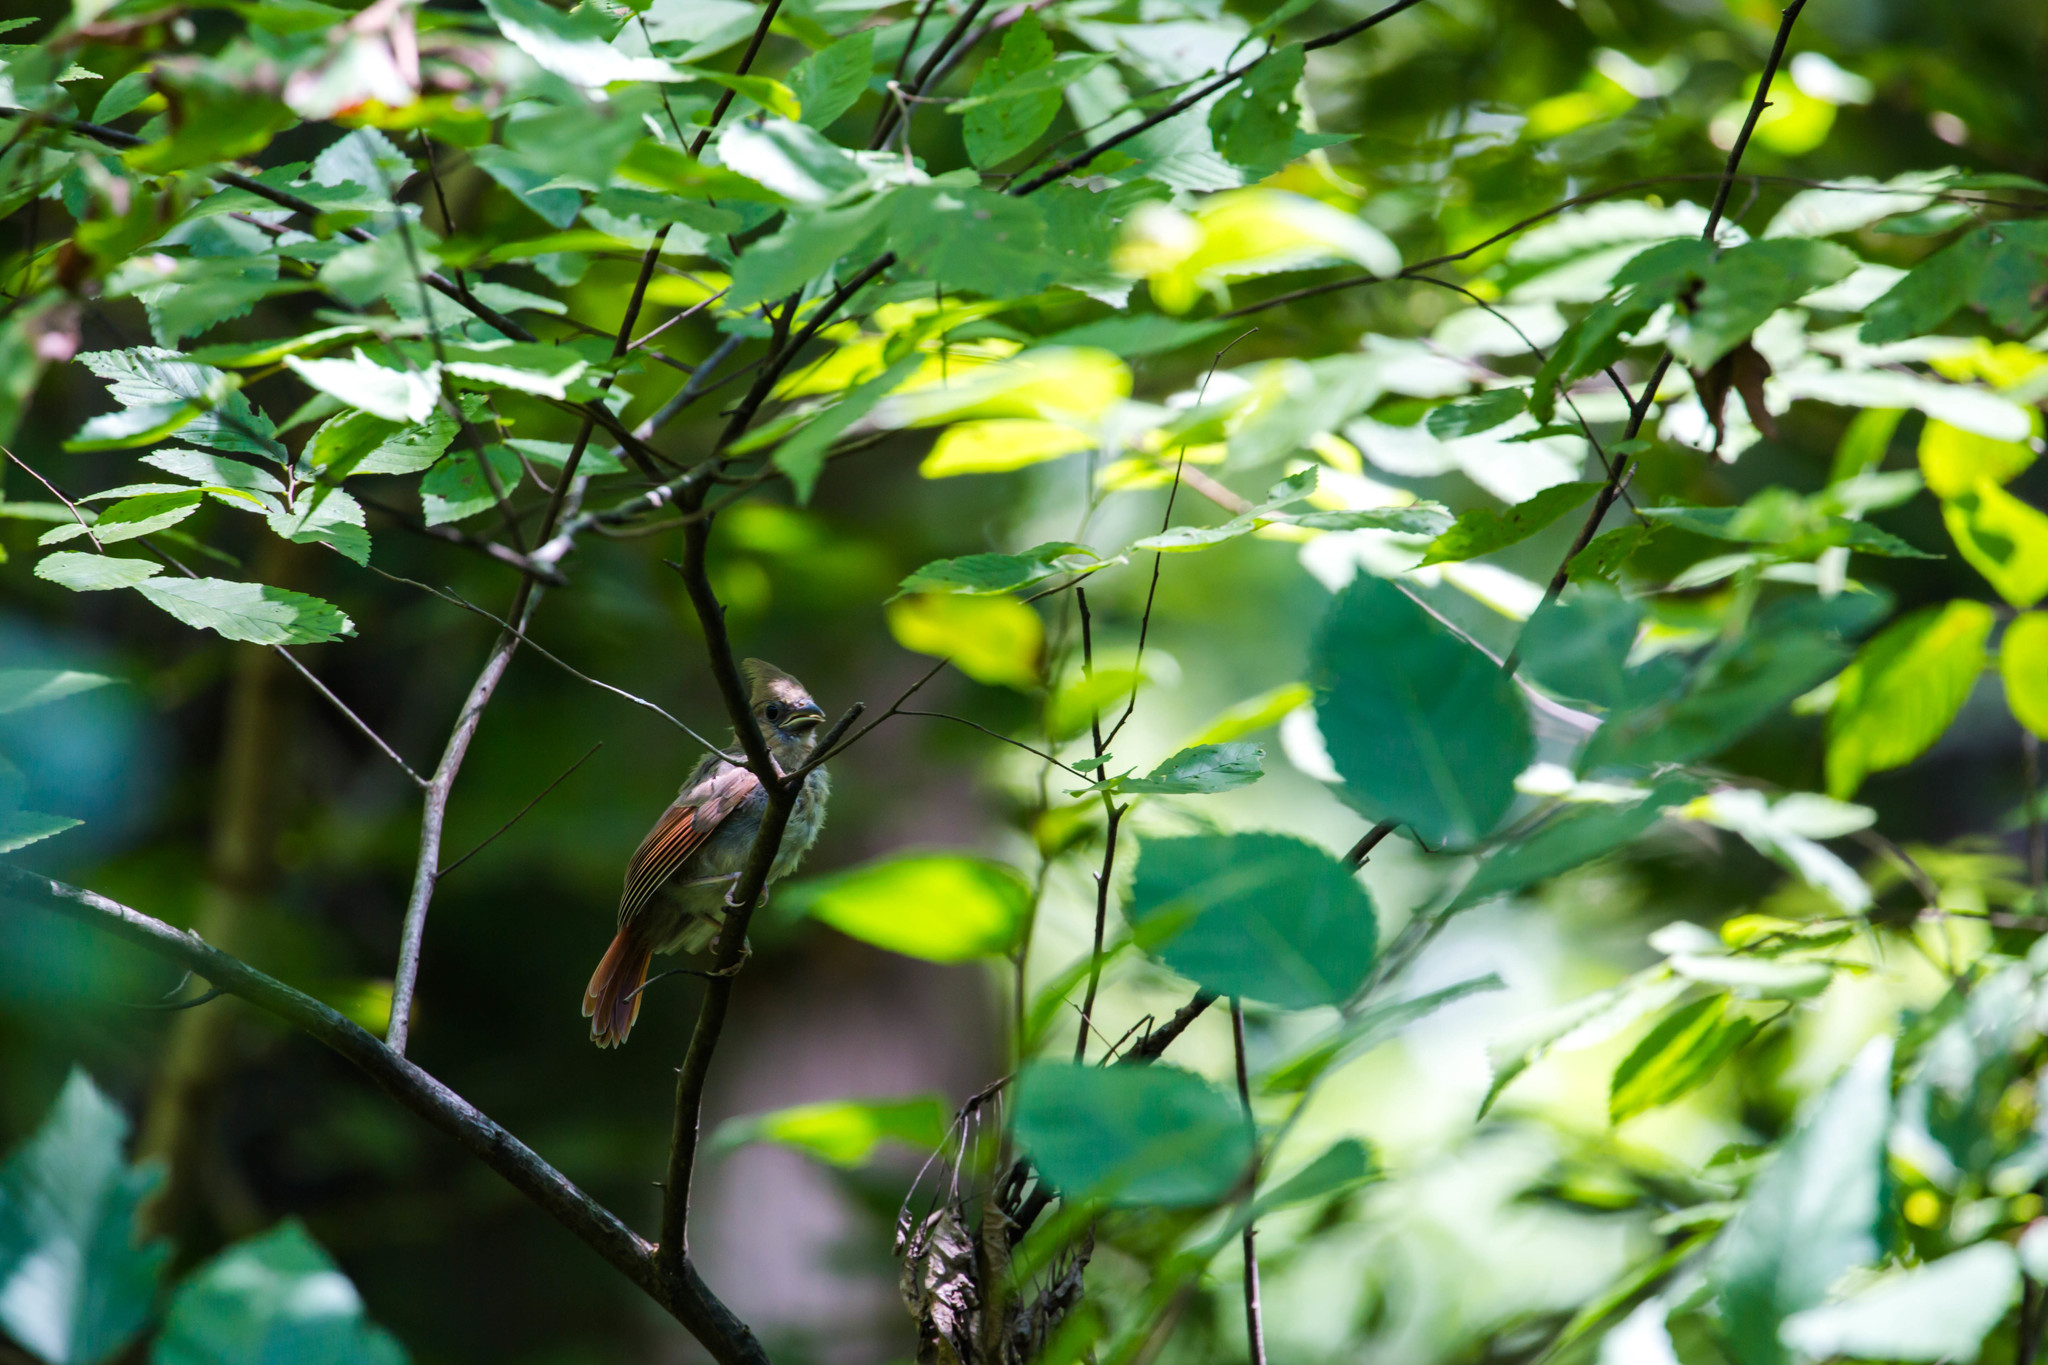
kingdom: Animalia
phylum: Chordata
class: Aves
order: Passeriformes
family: Cardinalidae
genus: Cardinalis
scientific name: Cardinalis cardinalis
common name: Northern cardinal
